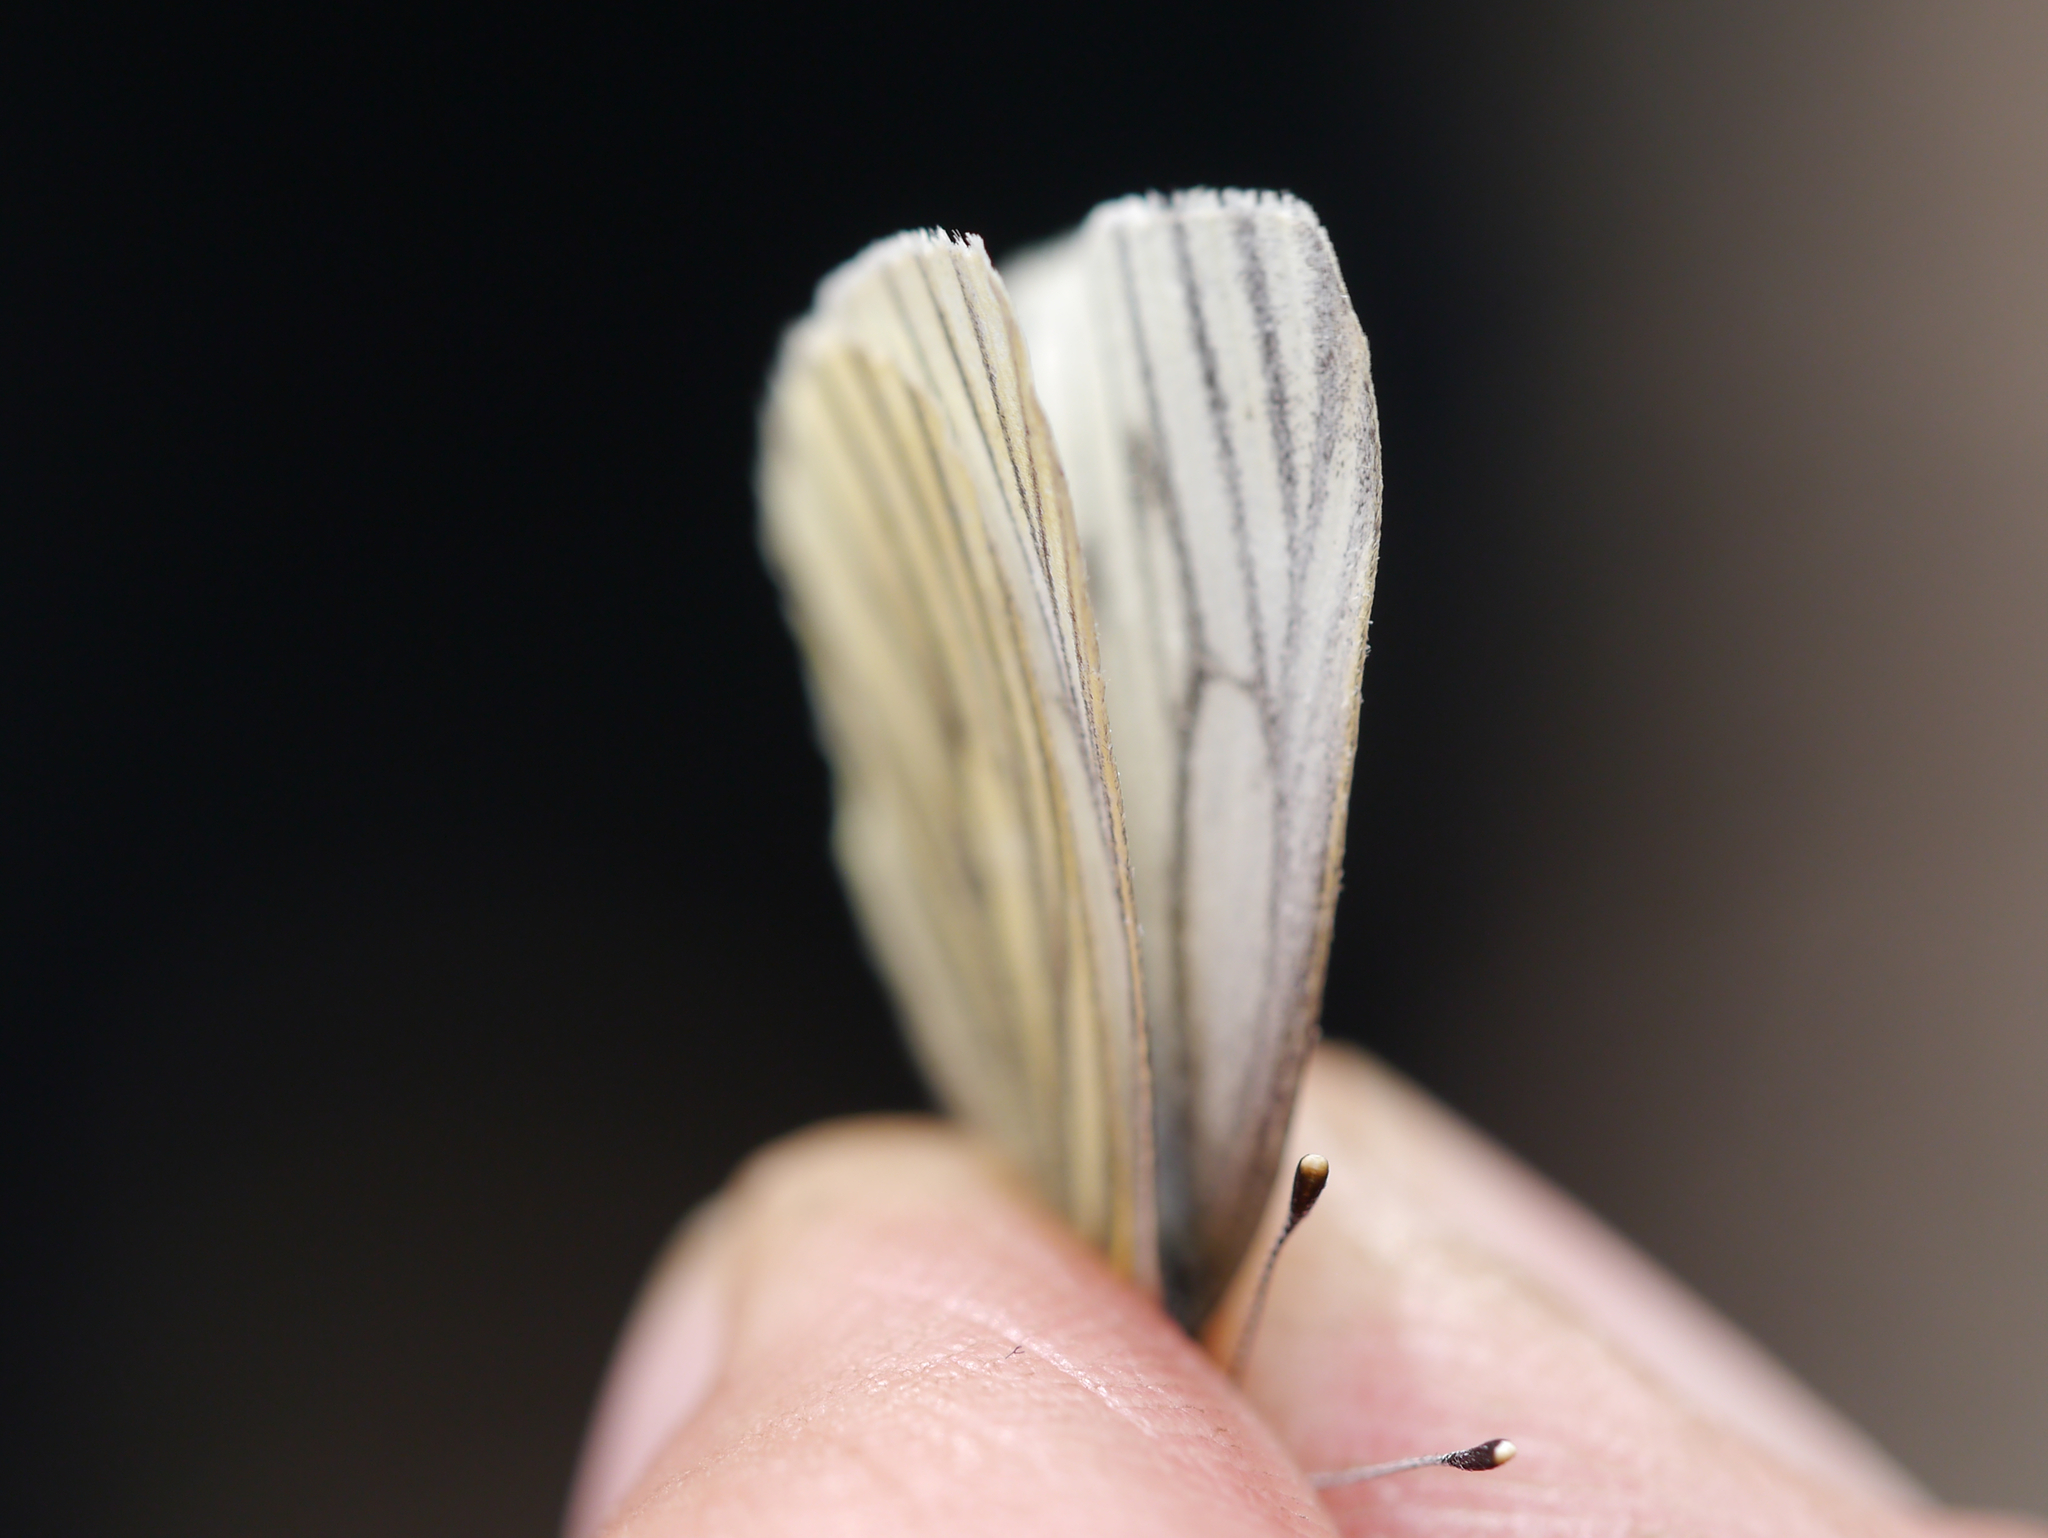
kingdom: Animalia
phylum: Arthropoda
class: Insecta
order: Lepidoptera
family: Pieridae
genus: Pieris
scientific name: Pieris angelika
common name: Arctic white
